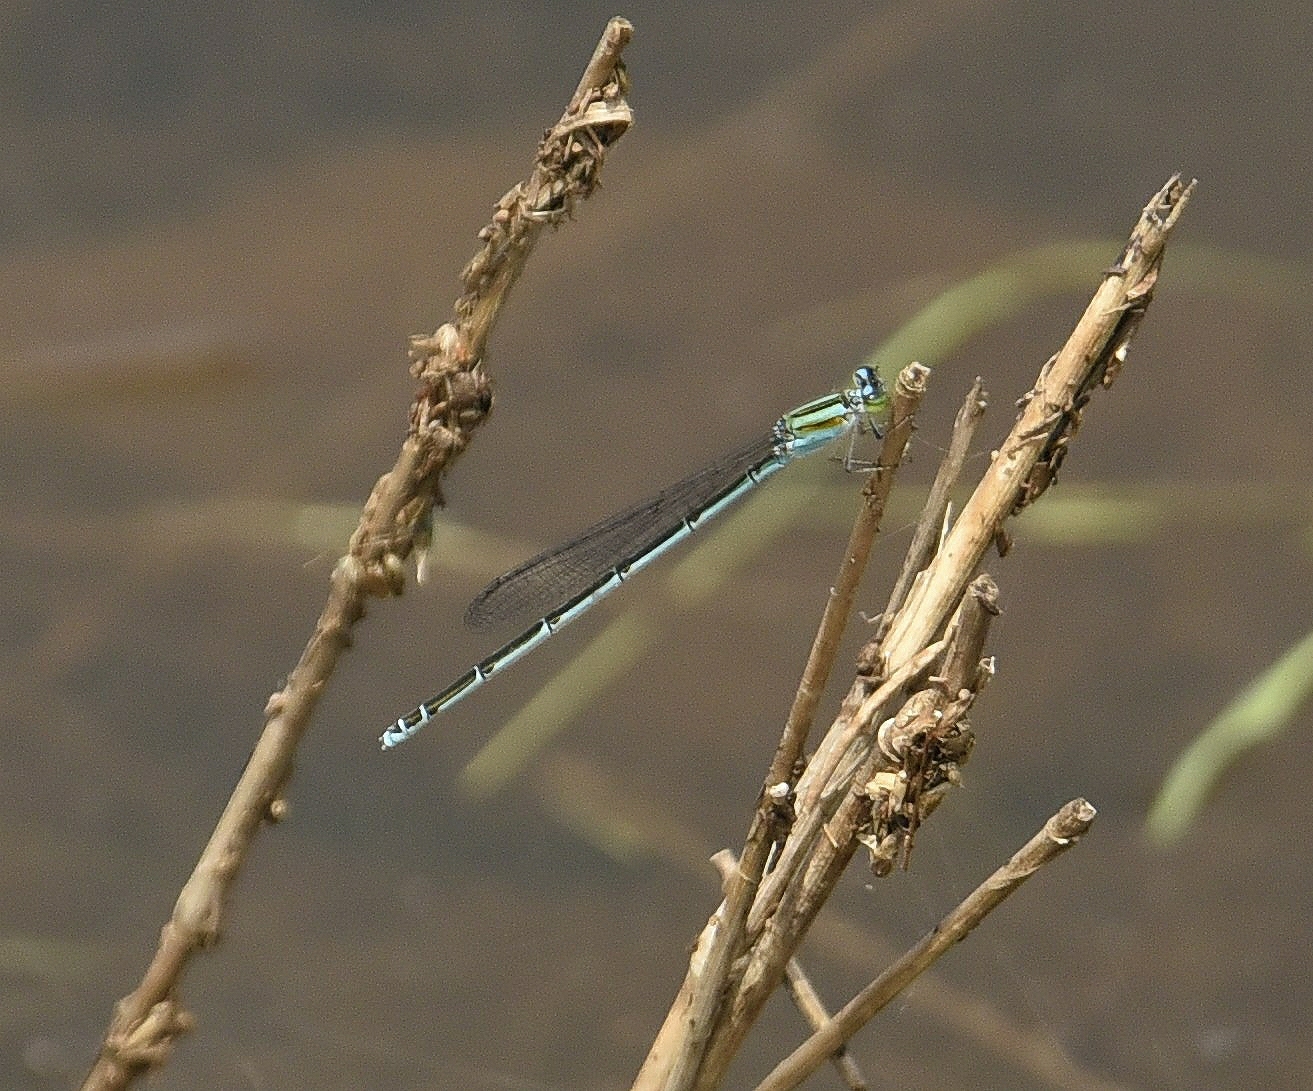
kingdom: Animalia
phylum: Arthropoda
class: Insecta
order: Odonata
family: Coenagrionidae
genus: Pseudagrion
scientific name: Pseudagrion malabaricum
